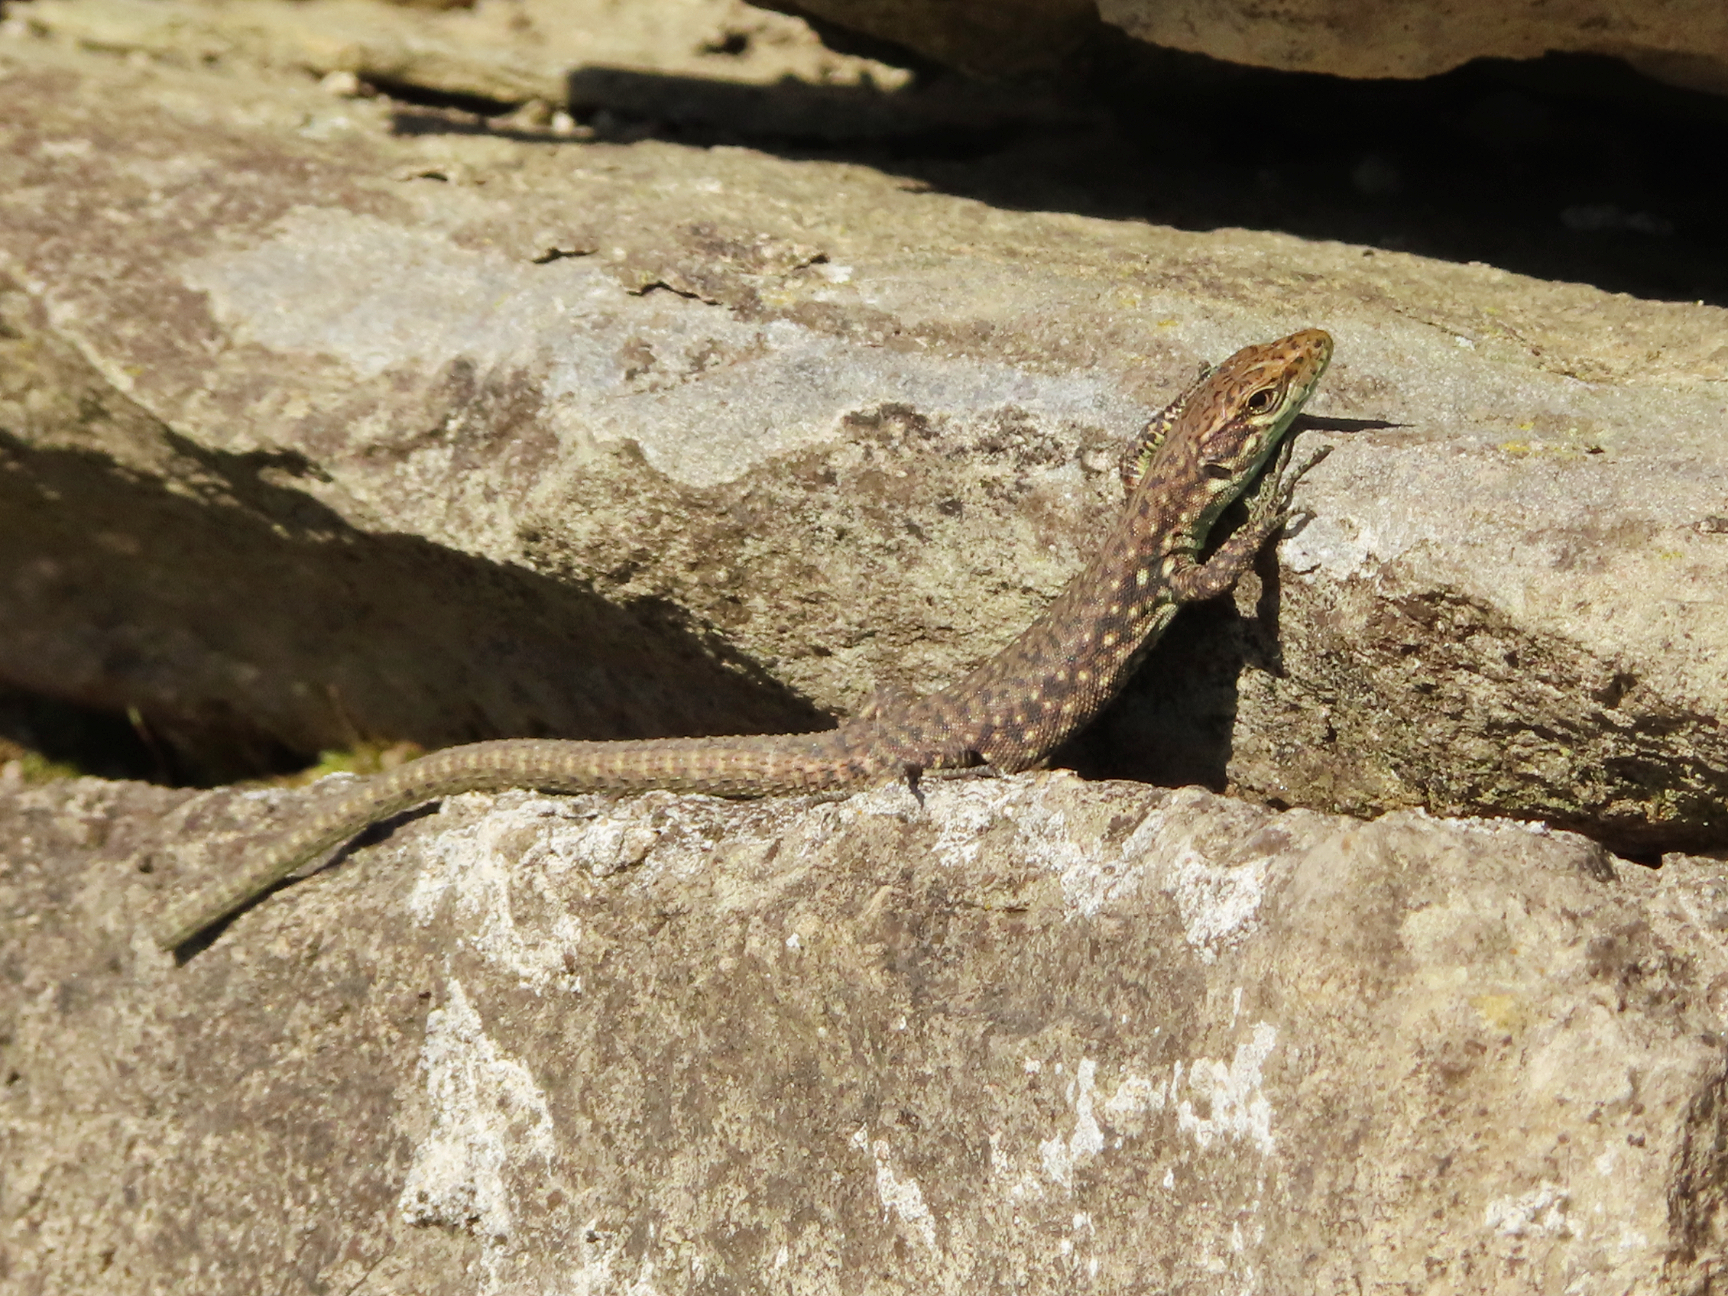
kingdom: Animalia
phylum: Chordata
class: Squamata
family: Lacertidae
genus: Darevskia
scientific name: Darevskia rudis
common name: Spiny-tailed lizard
